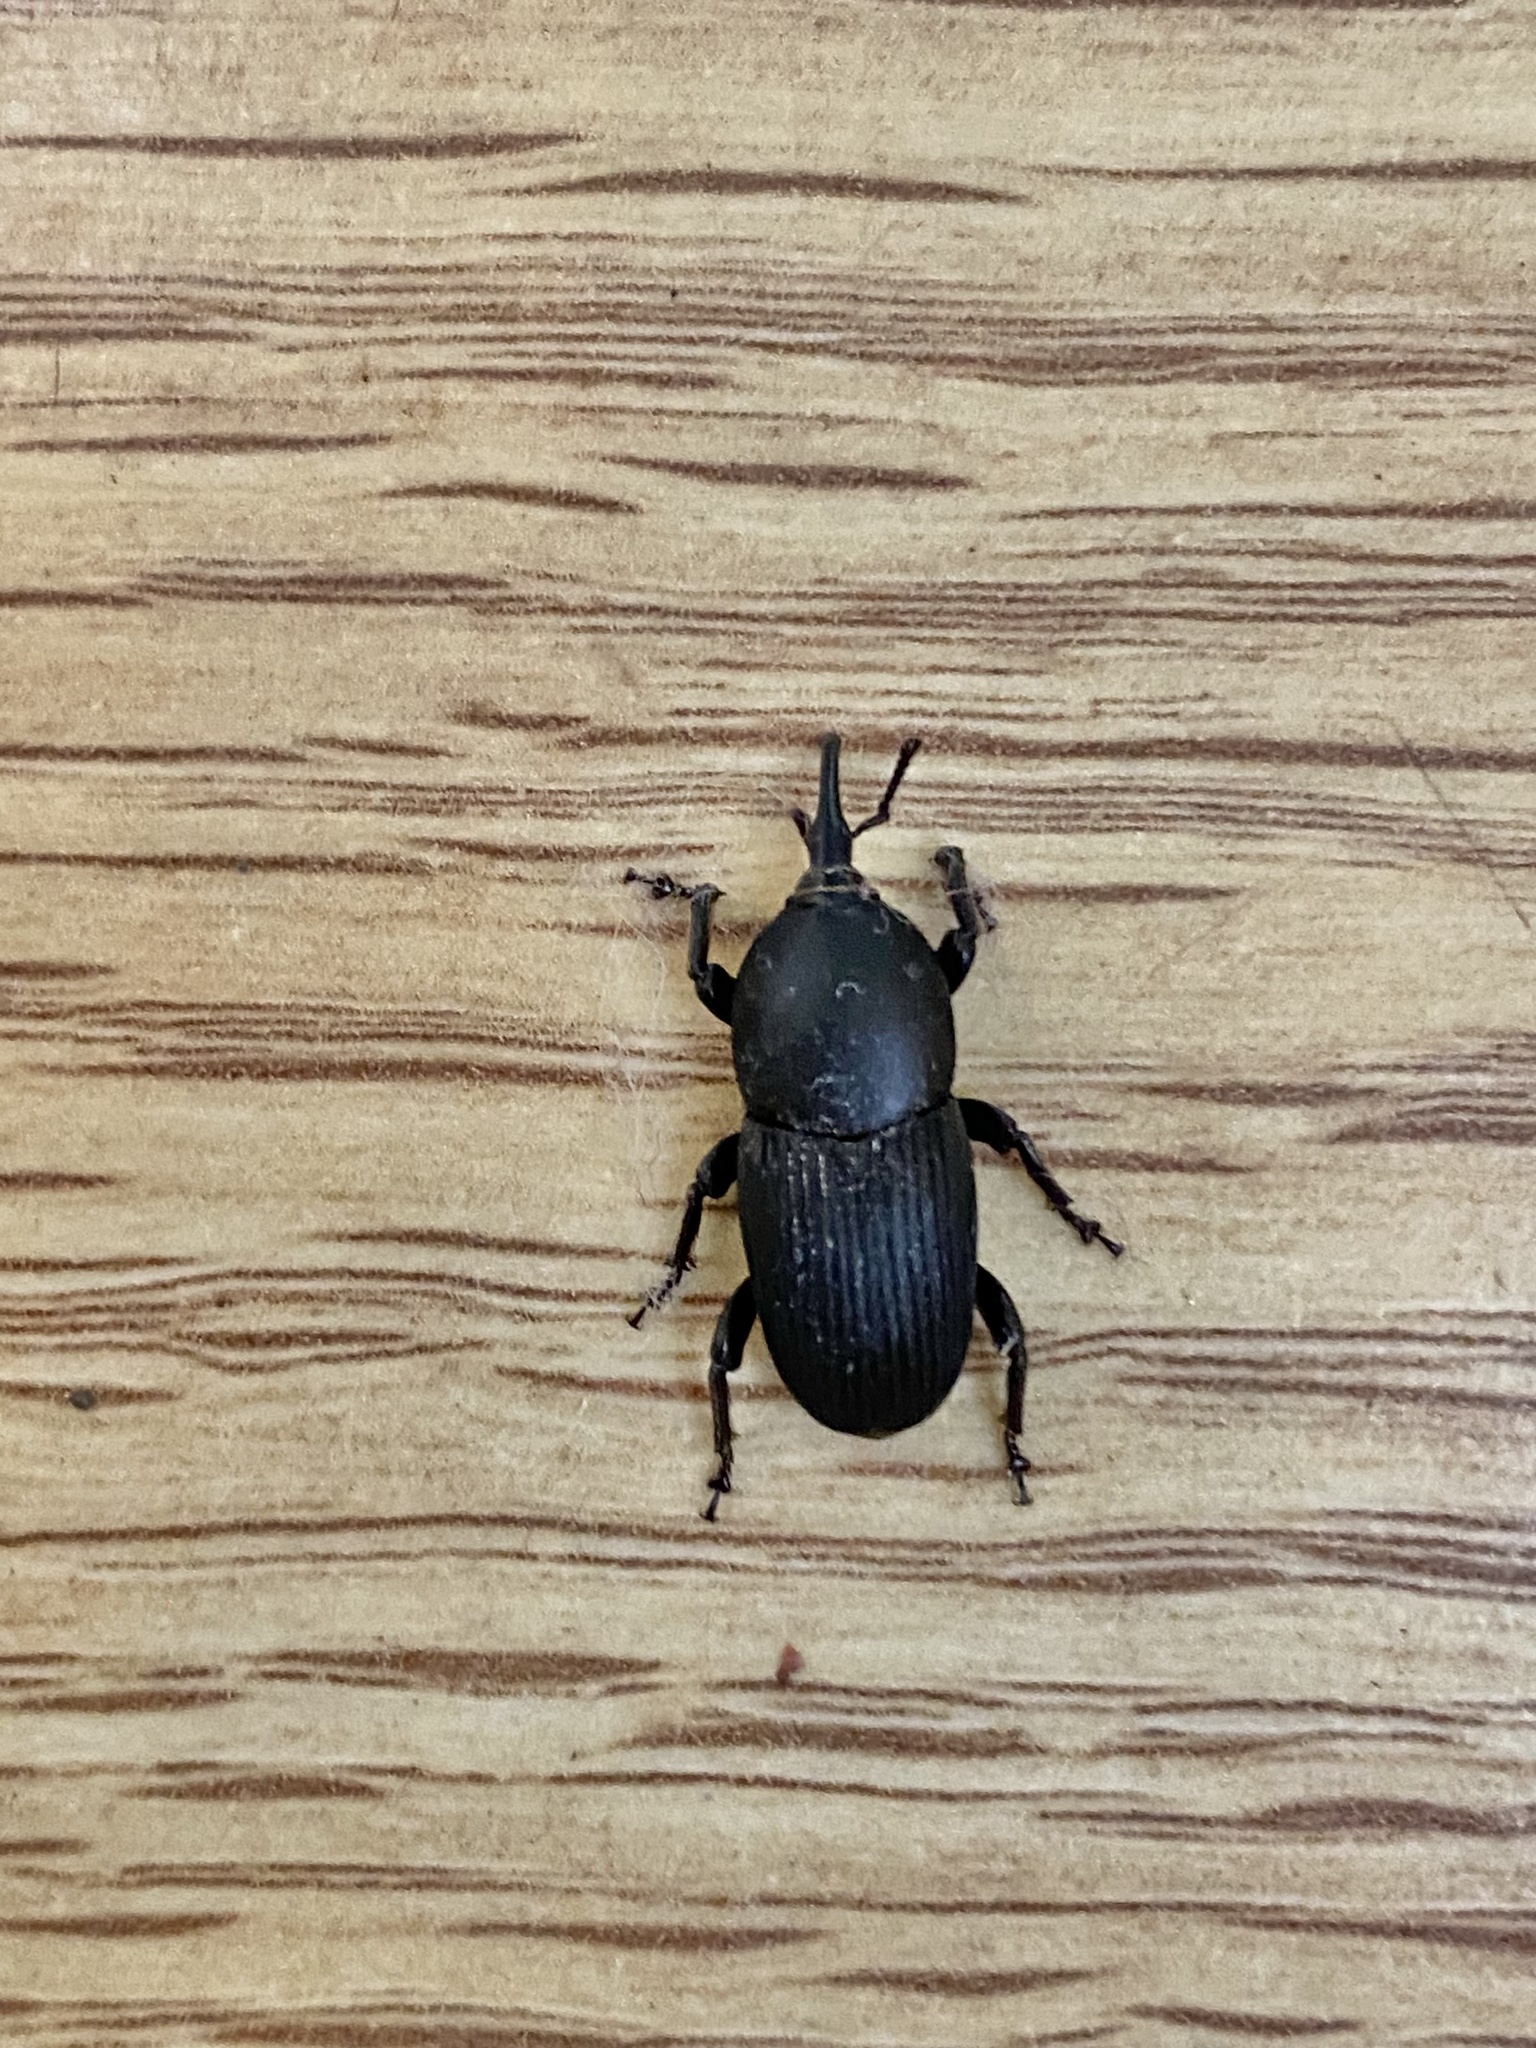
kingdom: Animalia
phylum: Arthropoda
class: Insecta
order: Coleoptera
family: Dryophthoridae
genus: Scyphophorus
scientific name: Scyphophorus acupunctatus
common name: Weevil
